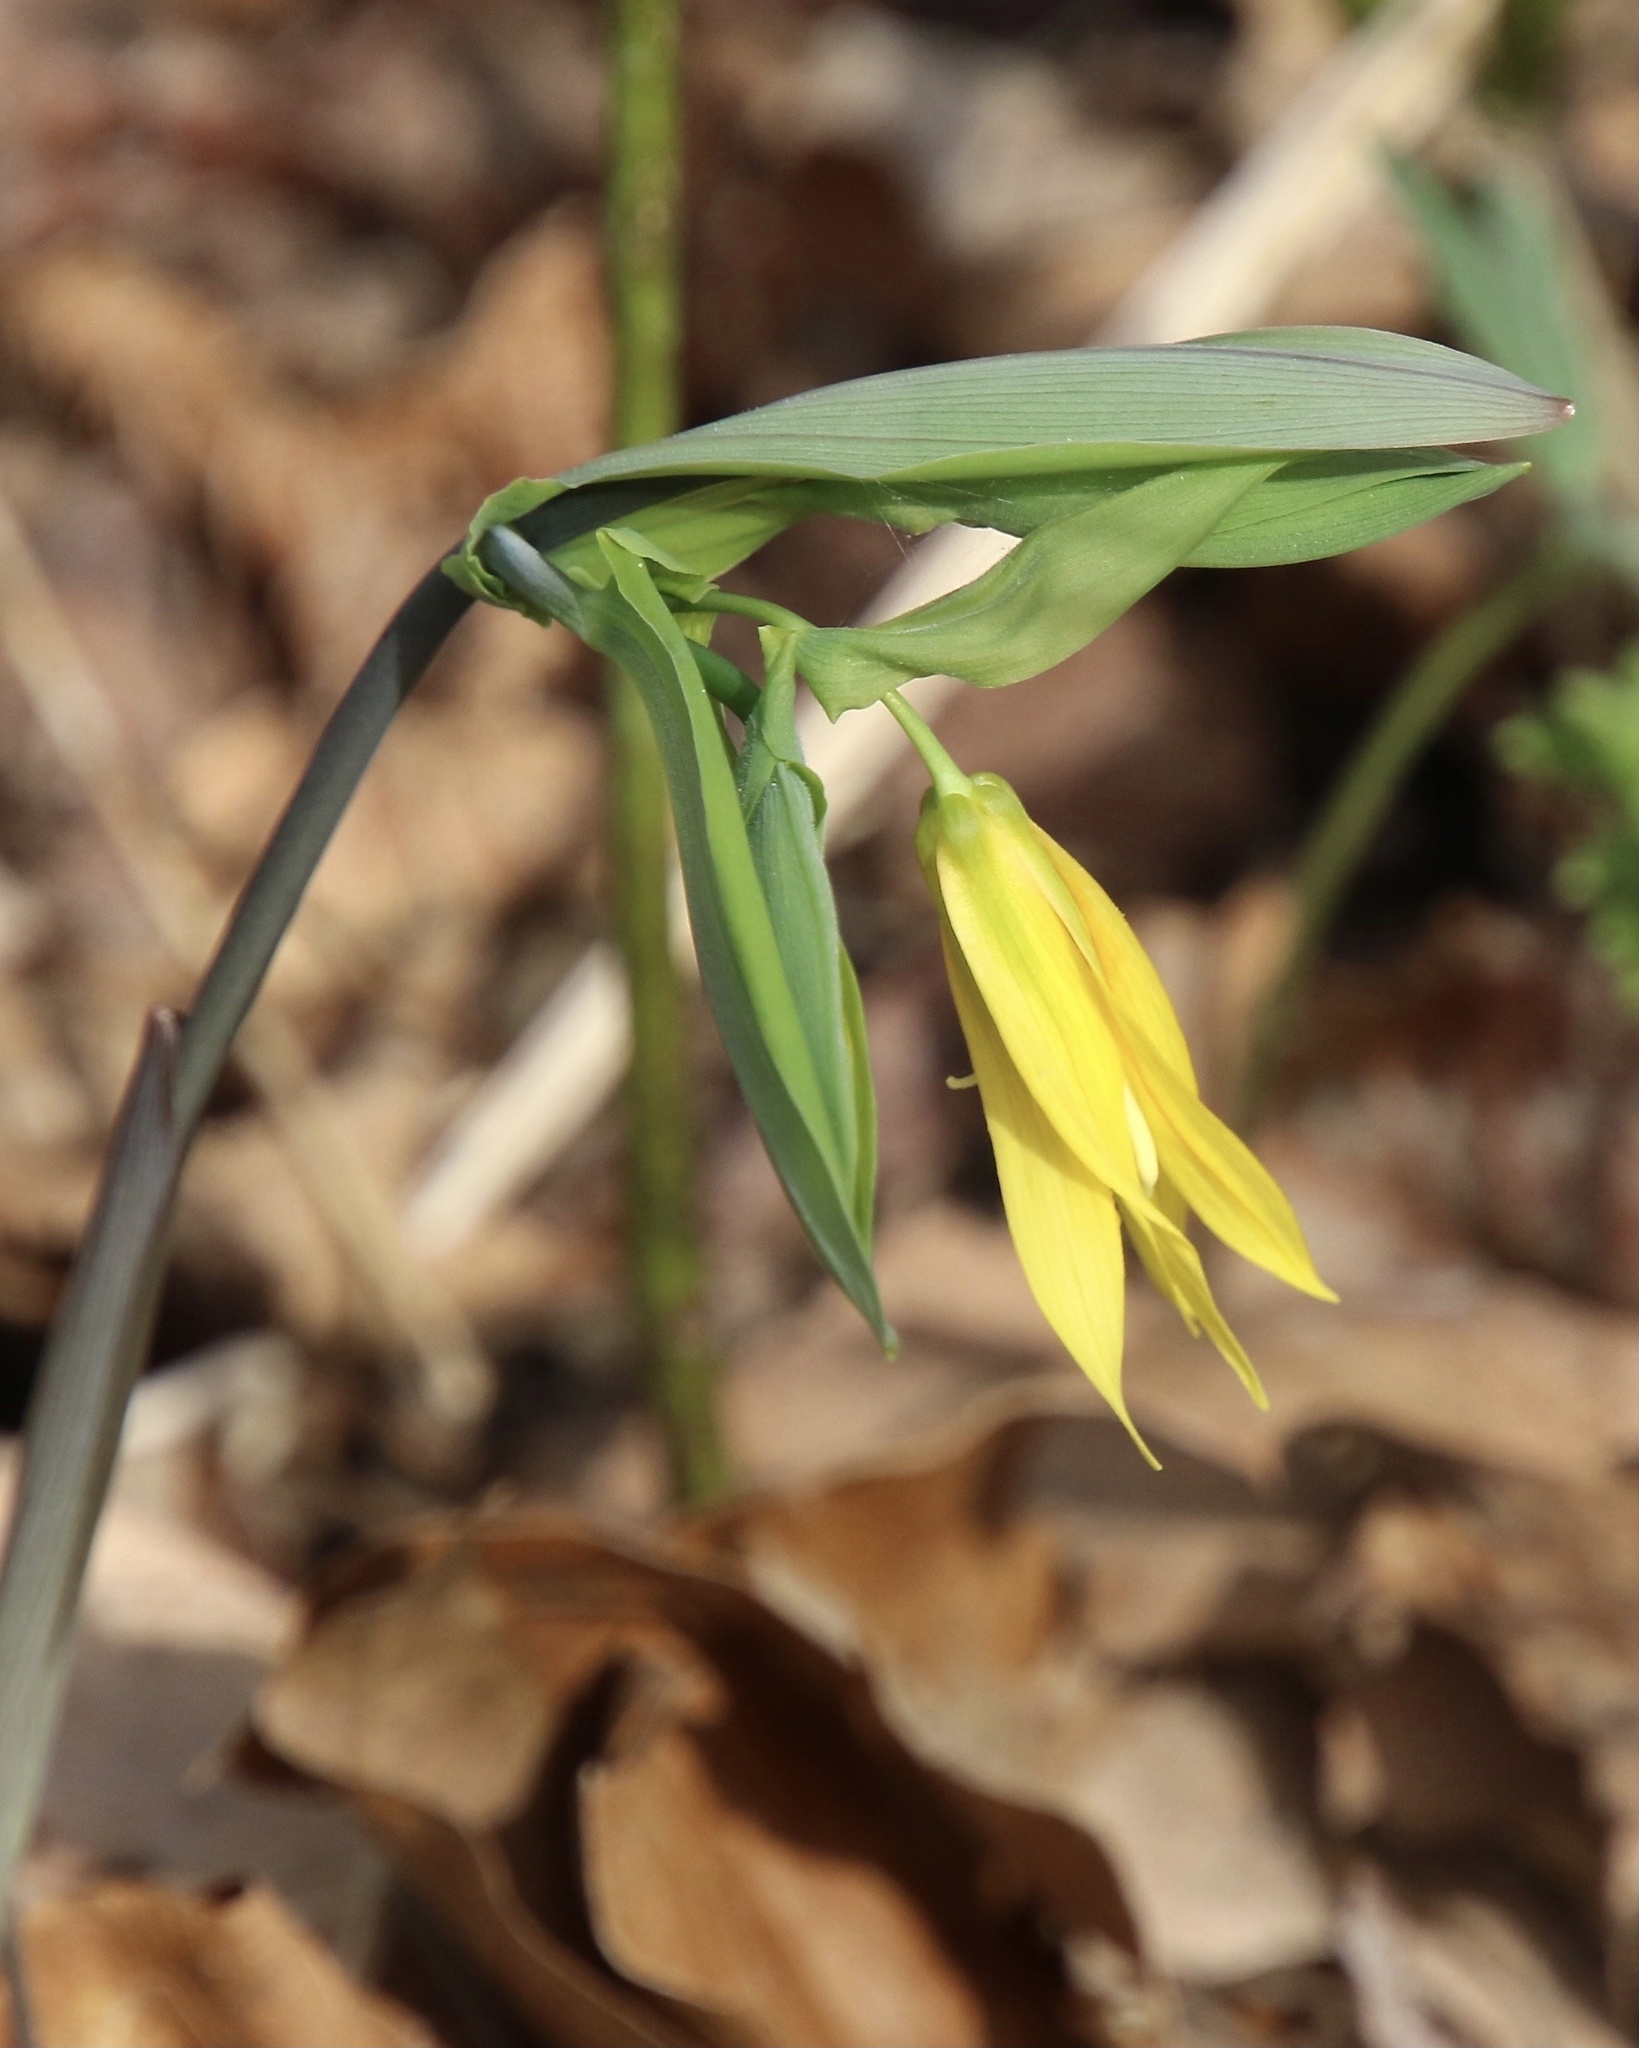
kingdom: Plantae
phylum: Tracheophyta
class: Liliopsida
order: Liliales
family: Colchicaceae
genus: Uvularia
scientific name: Uvularia grandiflora
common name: Bellwort
